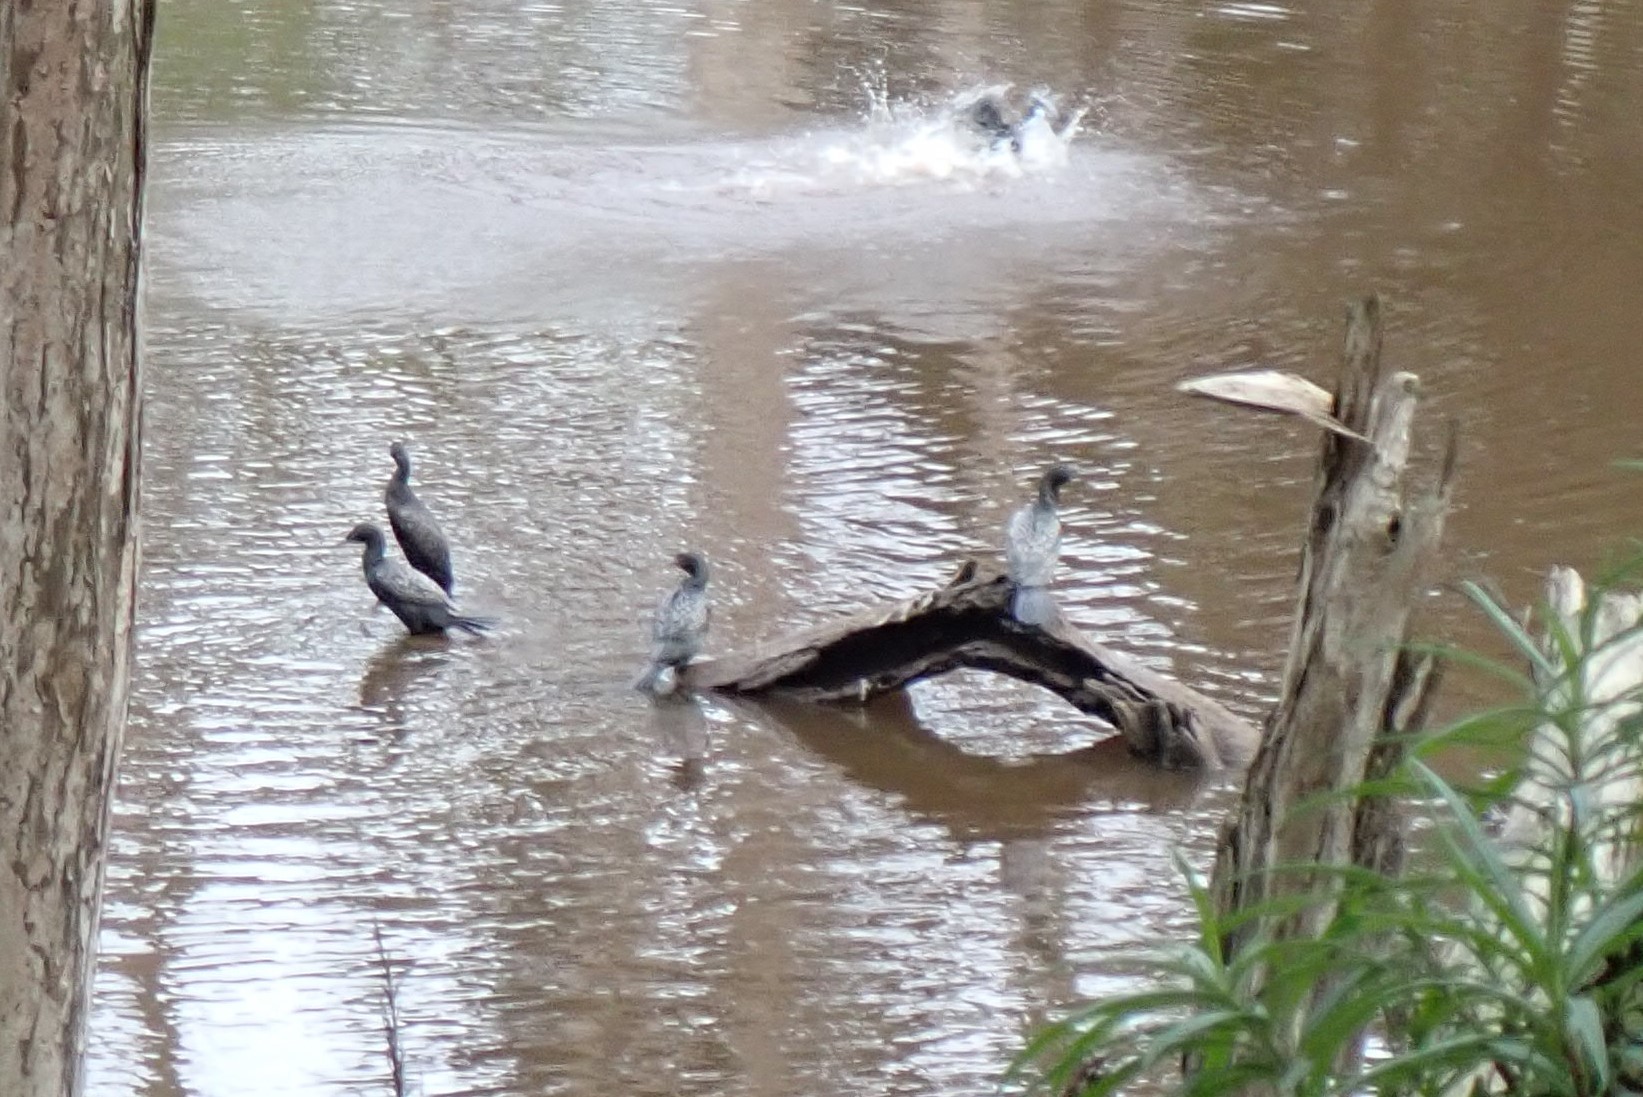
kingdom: Animalia
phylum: Chordata
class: Aves
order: Suliformes
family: Phalacrocoracidae
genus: Phalacrocorax
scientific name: Phalacrocorax sulcirostris
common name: Little black cormorant
